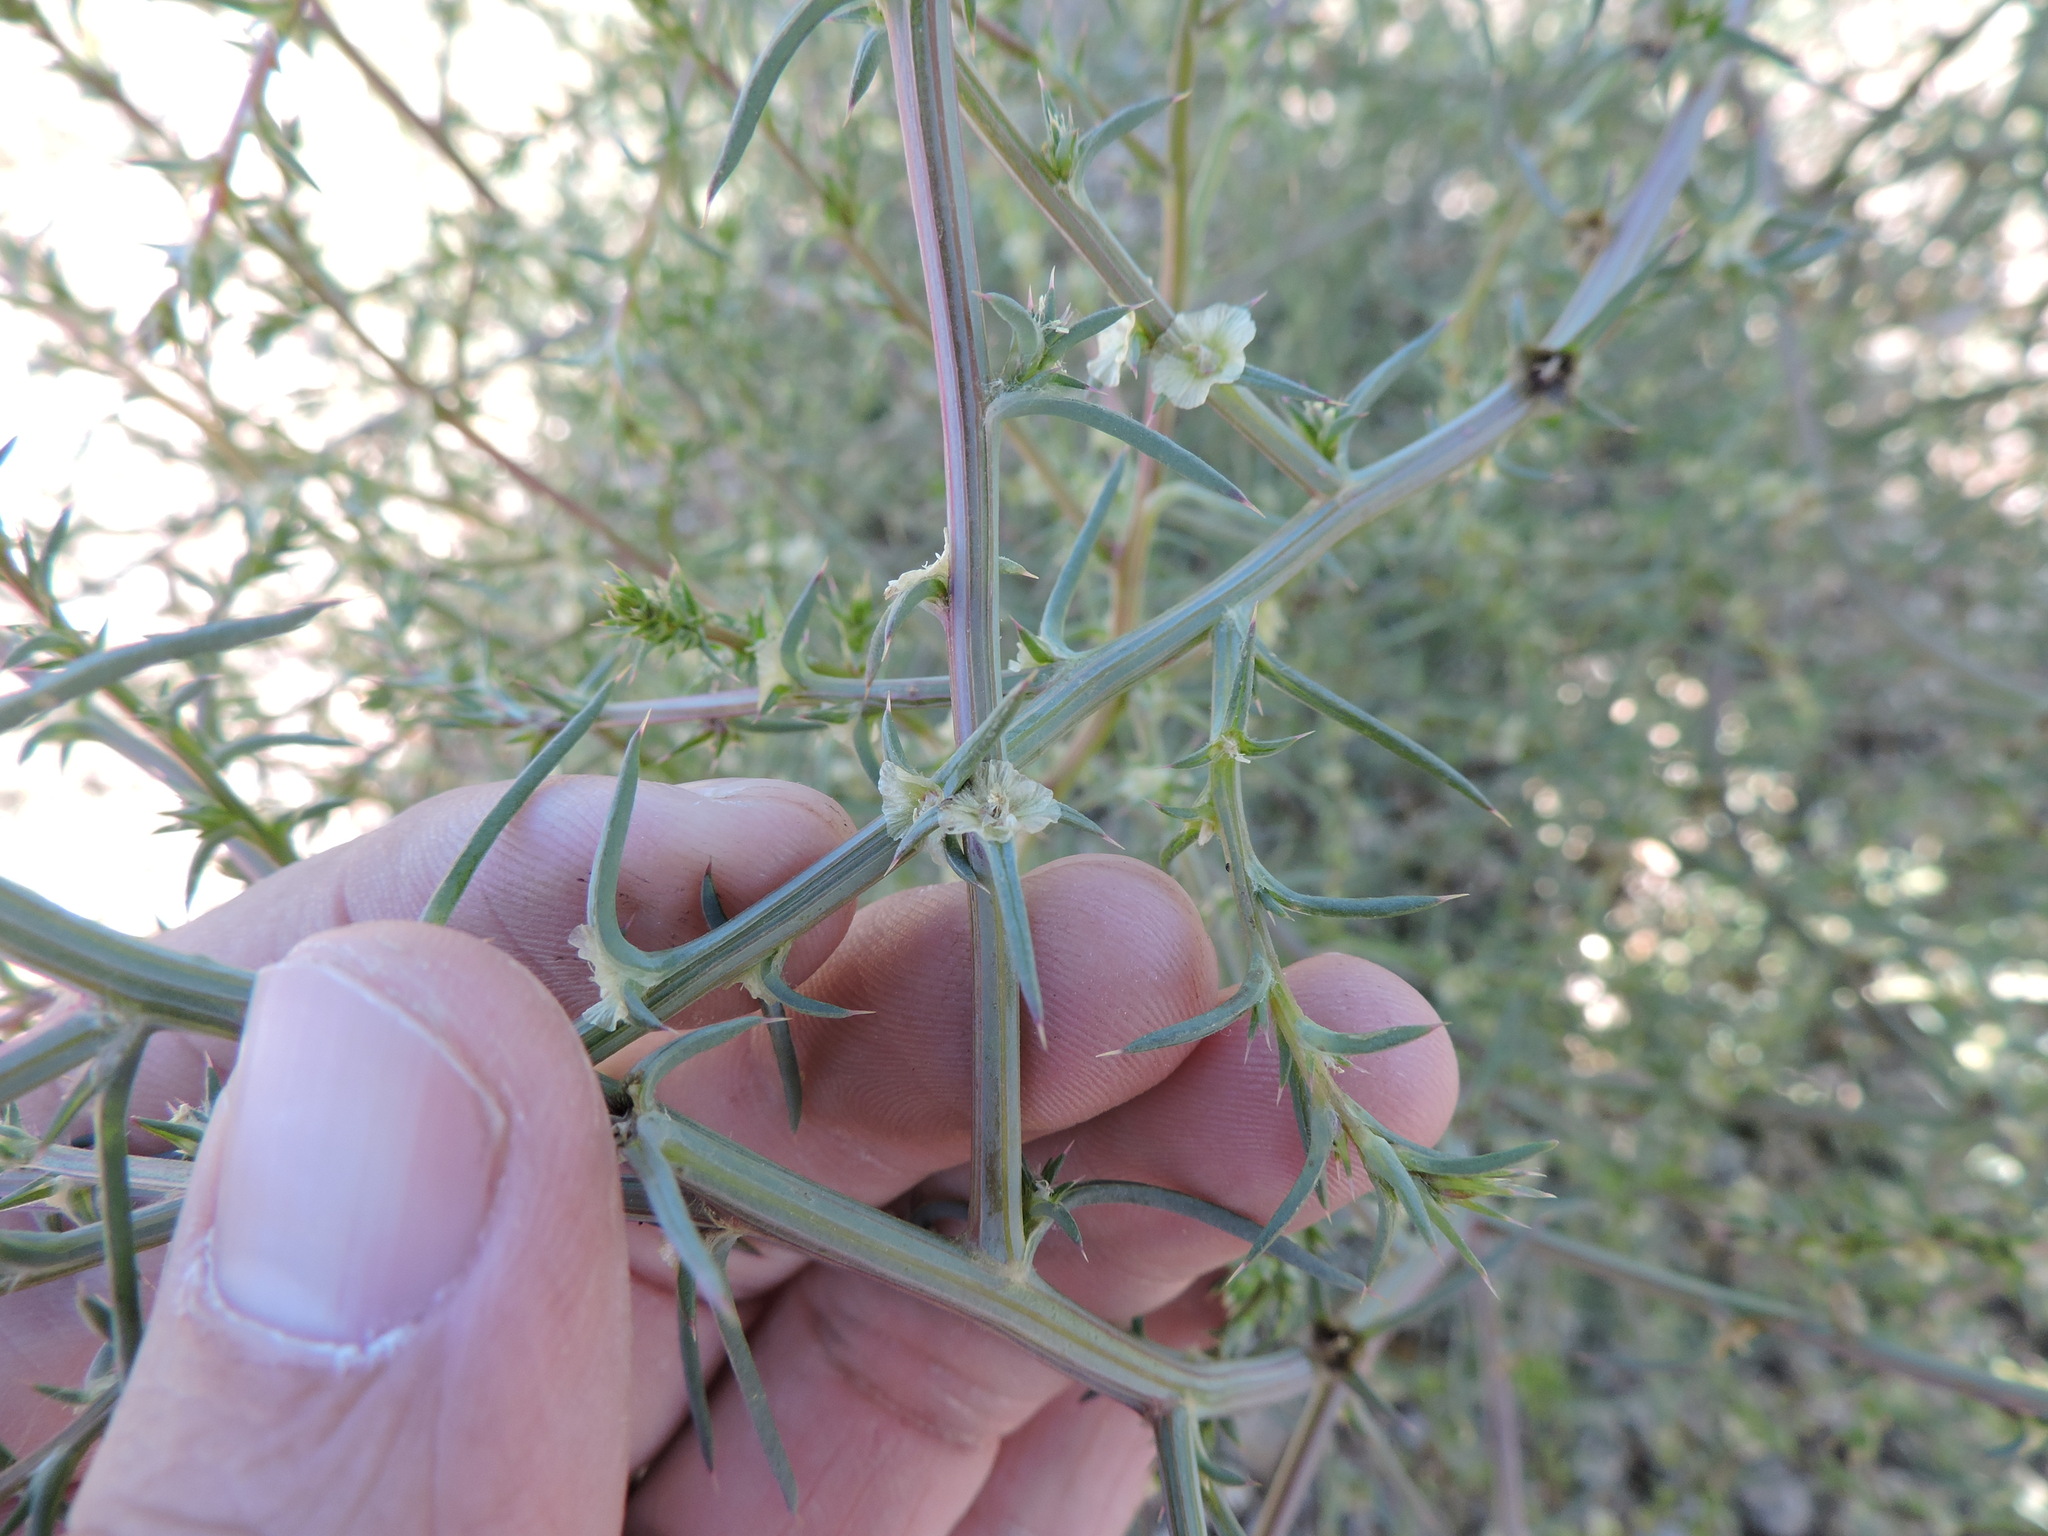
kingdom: Plantae
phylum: Tracheophyta
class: Magnoliopsida
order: Caryophyllales
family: Amaranthaceae
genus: Salsola
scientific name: Salsola tragus
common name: Prickly russian thistle
